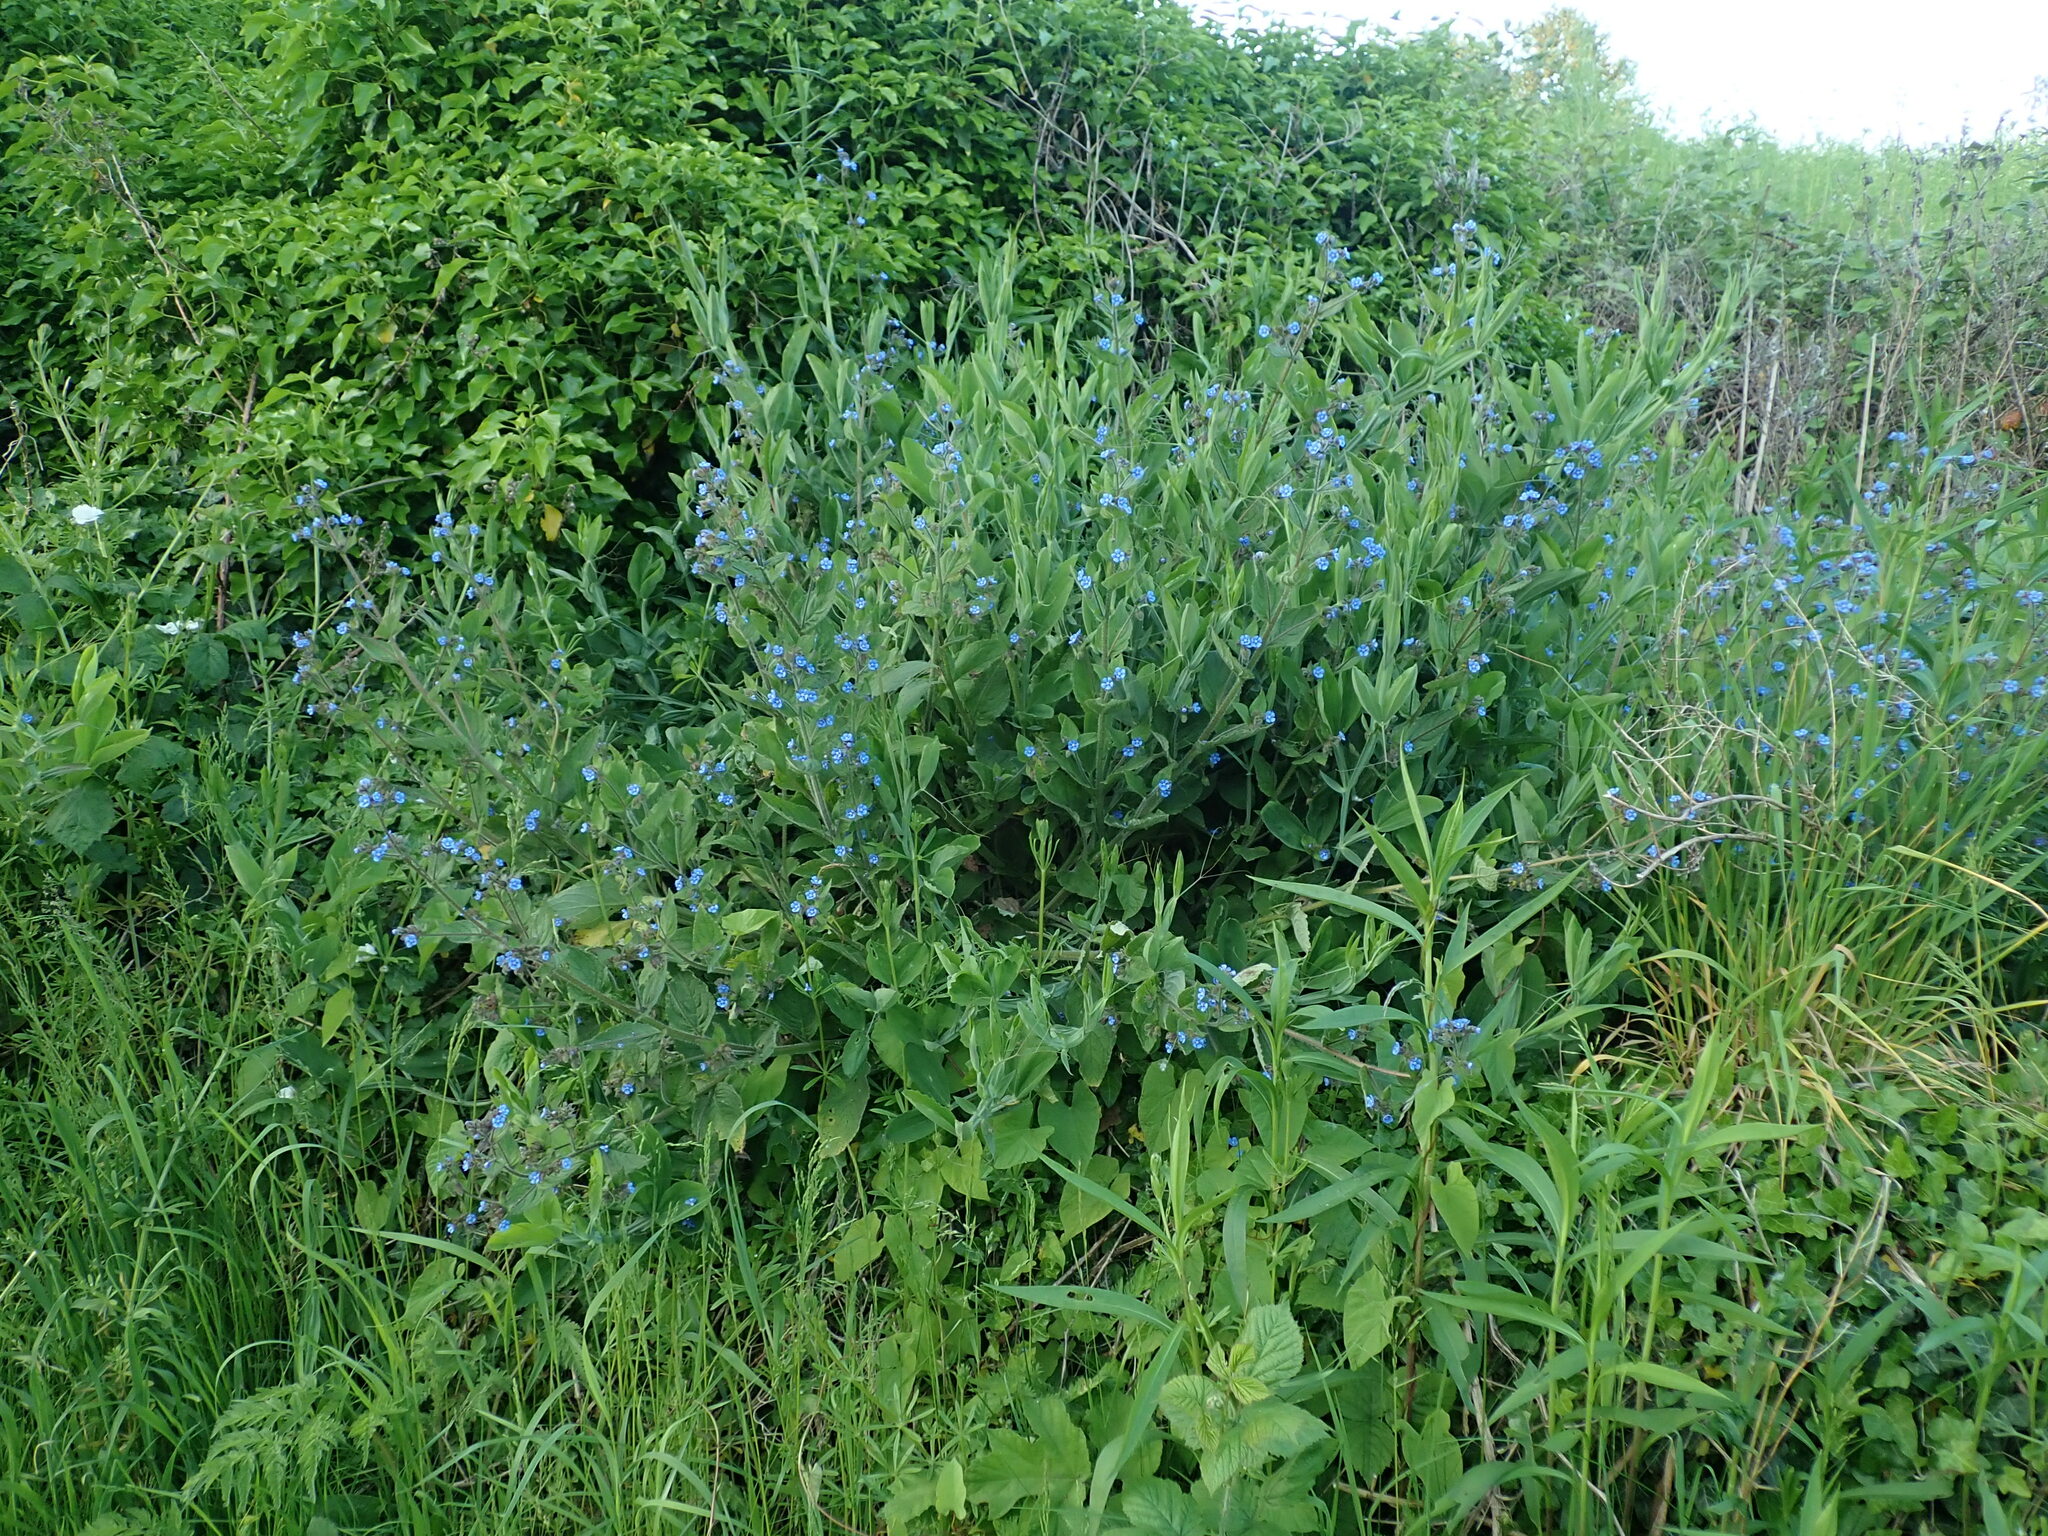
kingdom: Plantae
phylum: Tracheophyta
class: Magnoliopsida
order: Boraginales
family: Boraginaceae
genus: Pentaglottis
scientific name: Pentaglottis sempervirens
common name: Green alkanet
